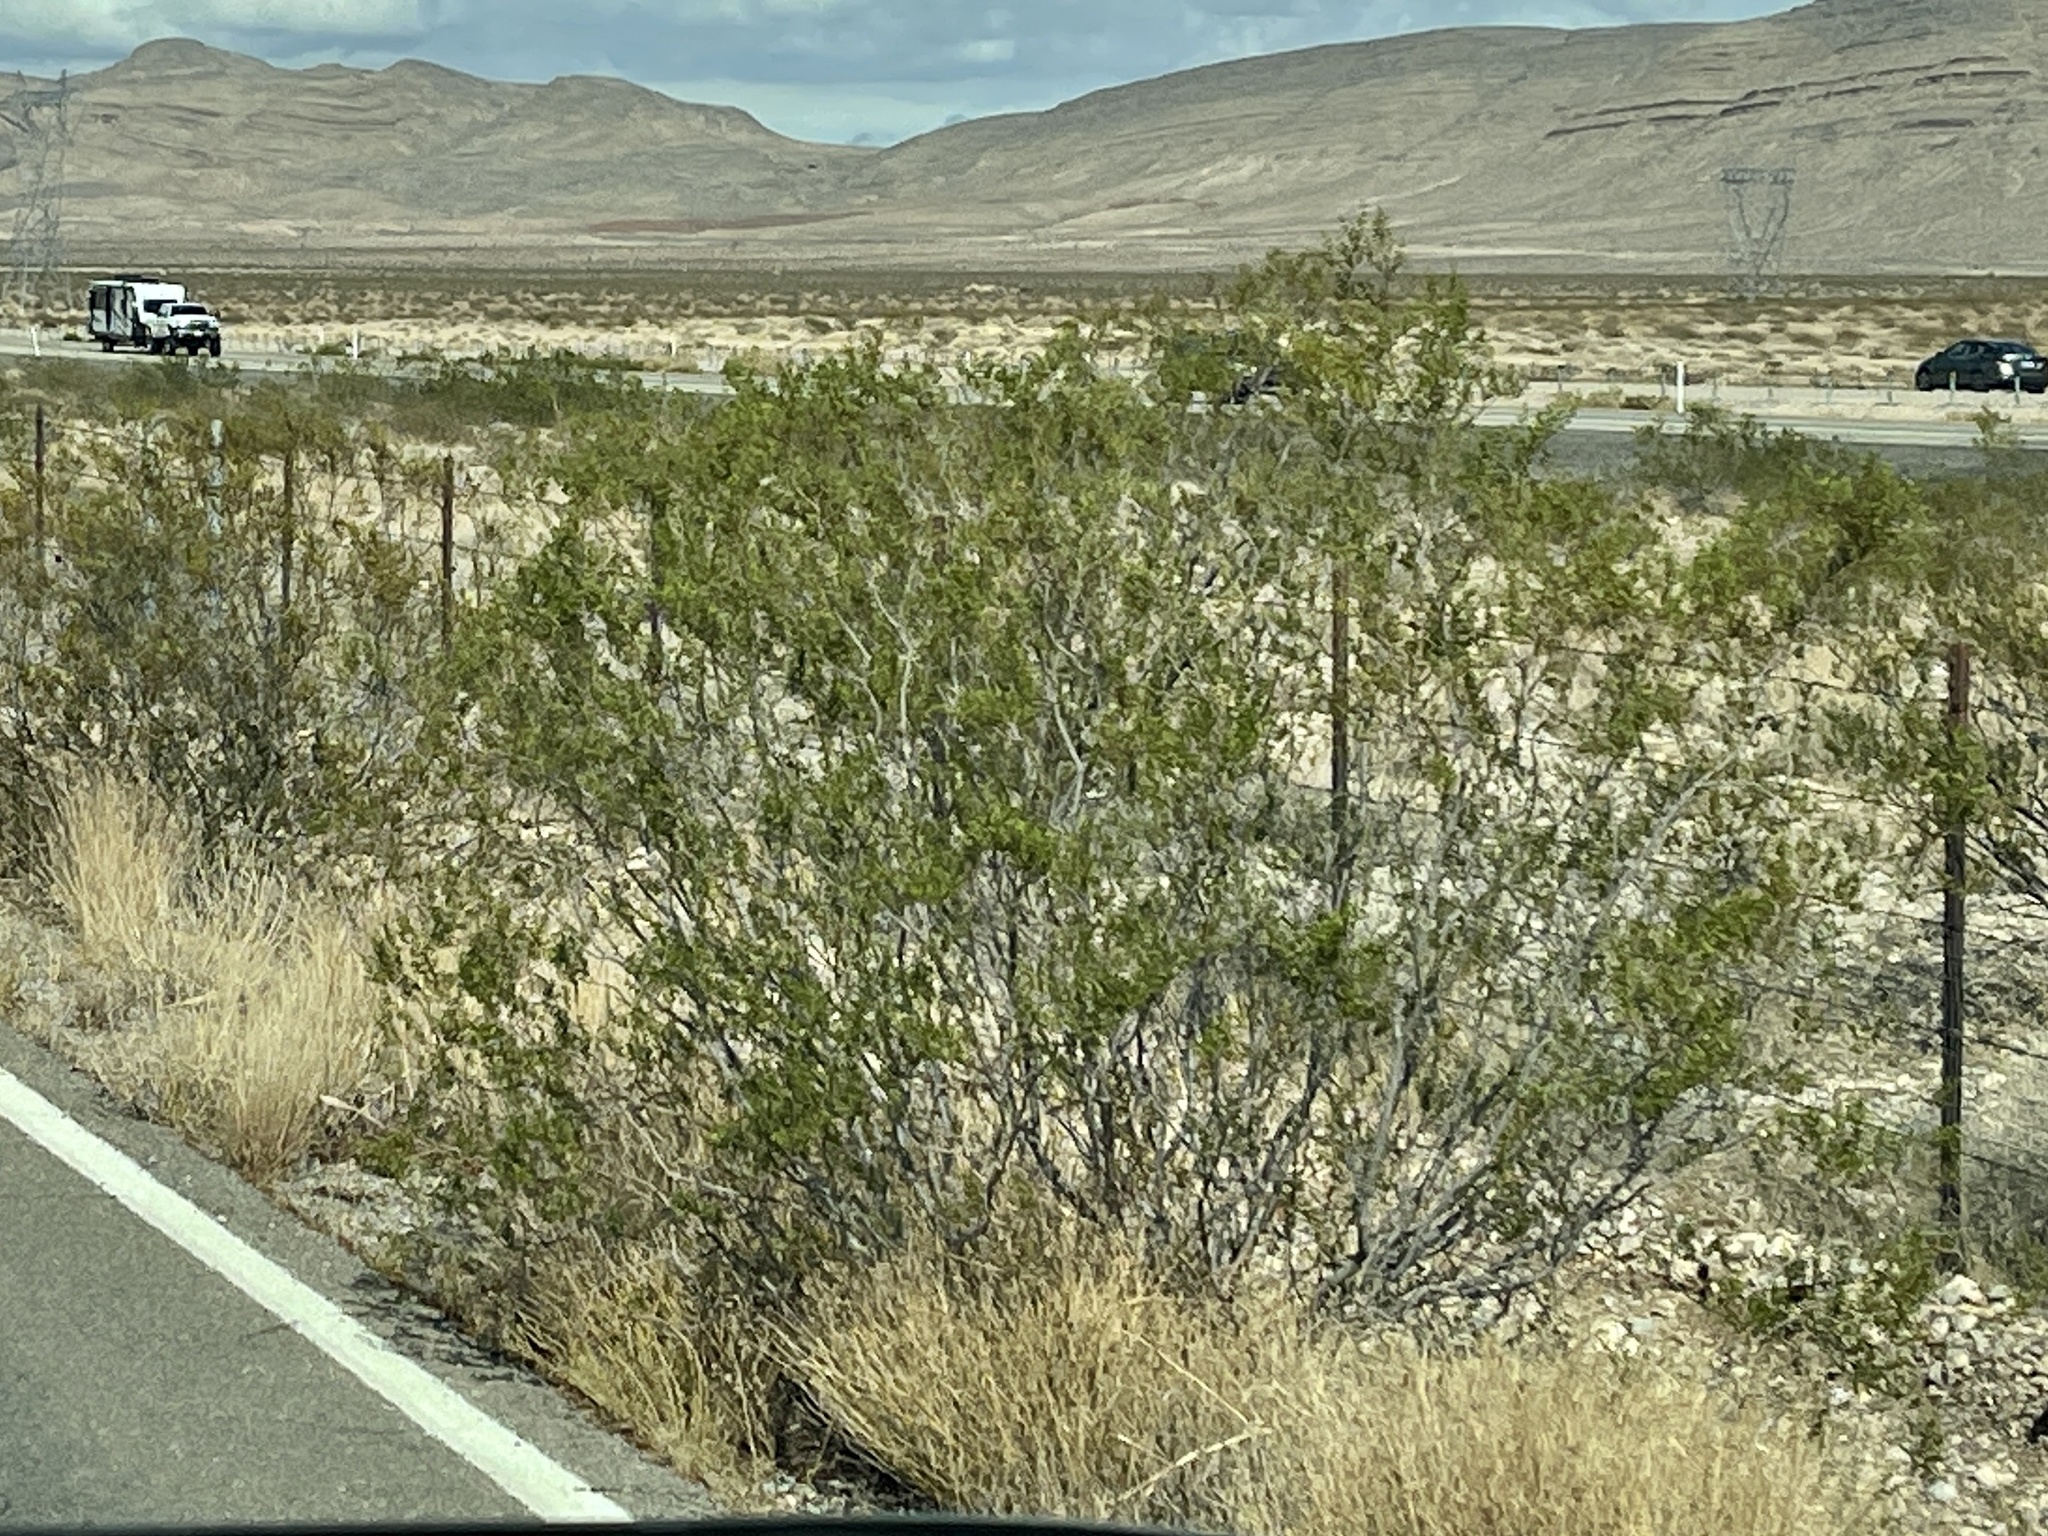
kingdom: Plantae
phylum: Tracheophyta
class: Magnoliopsida
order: Zygophyllales
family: Zygophyllaceae
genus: Larrea
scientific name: Larrea tridentata
